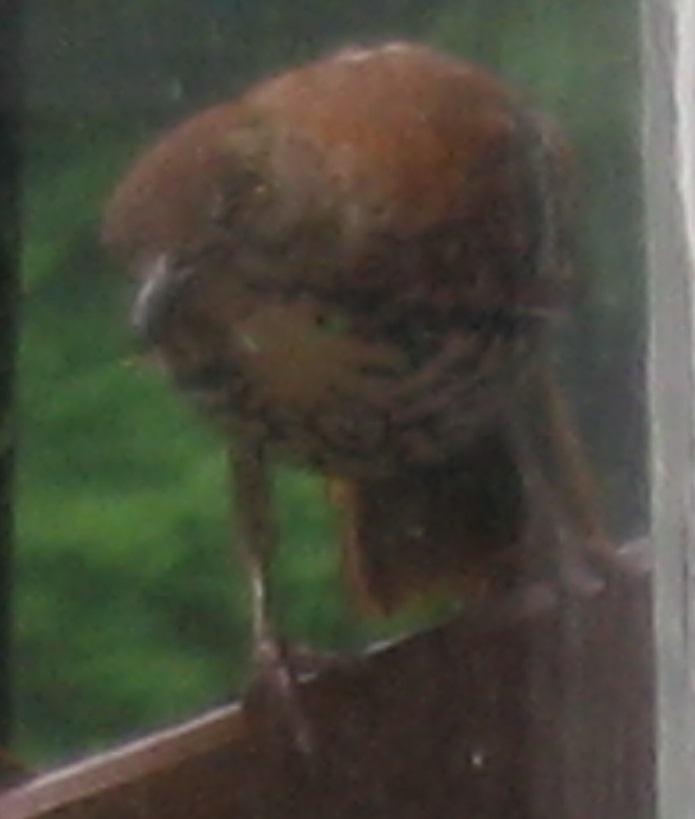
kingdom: Animalia
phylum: Chordata
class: Aves
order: Passeriformes
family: Mimidae
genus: Toxostoma
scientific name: Toxostoma rufum
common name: Brown thrasher
